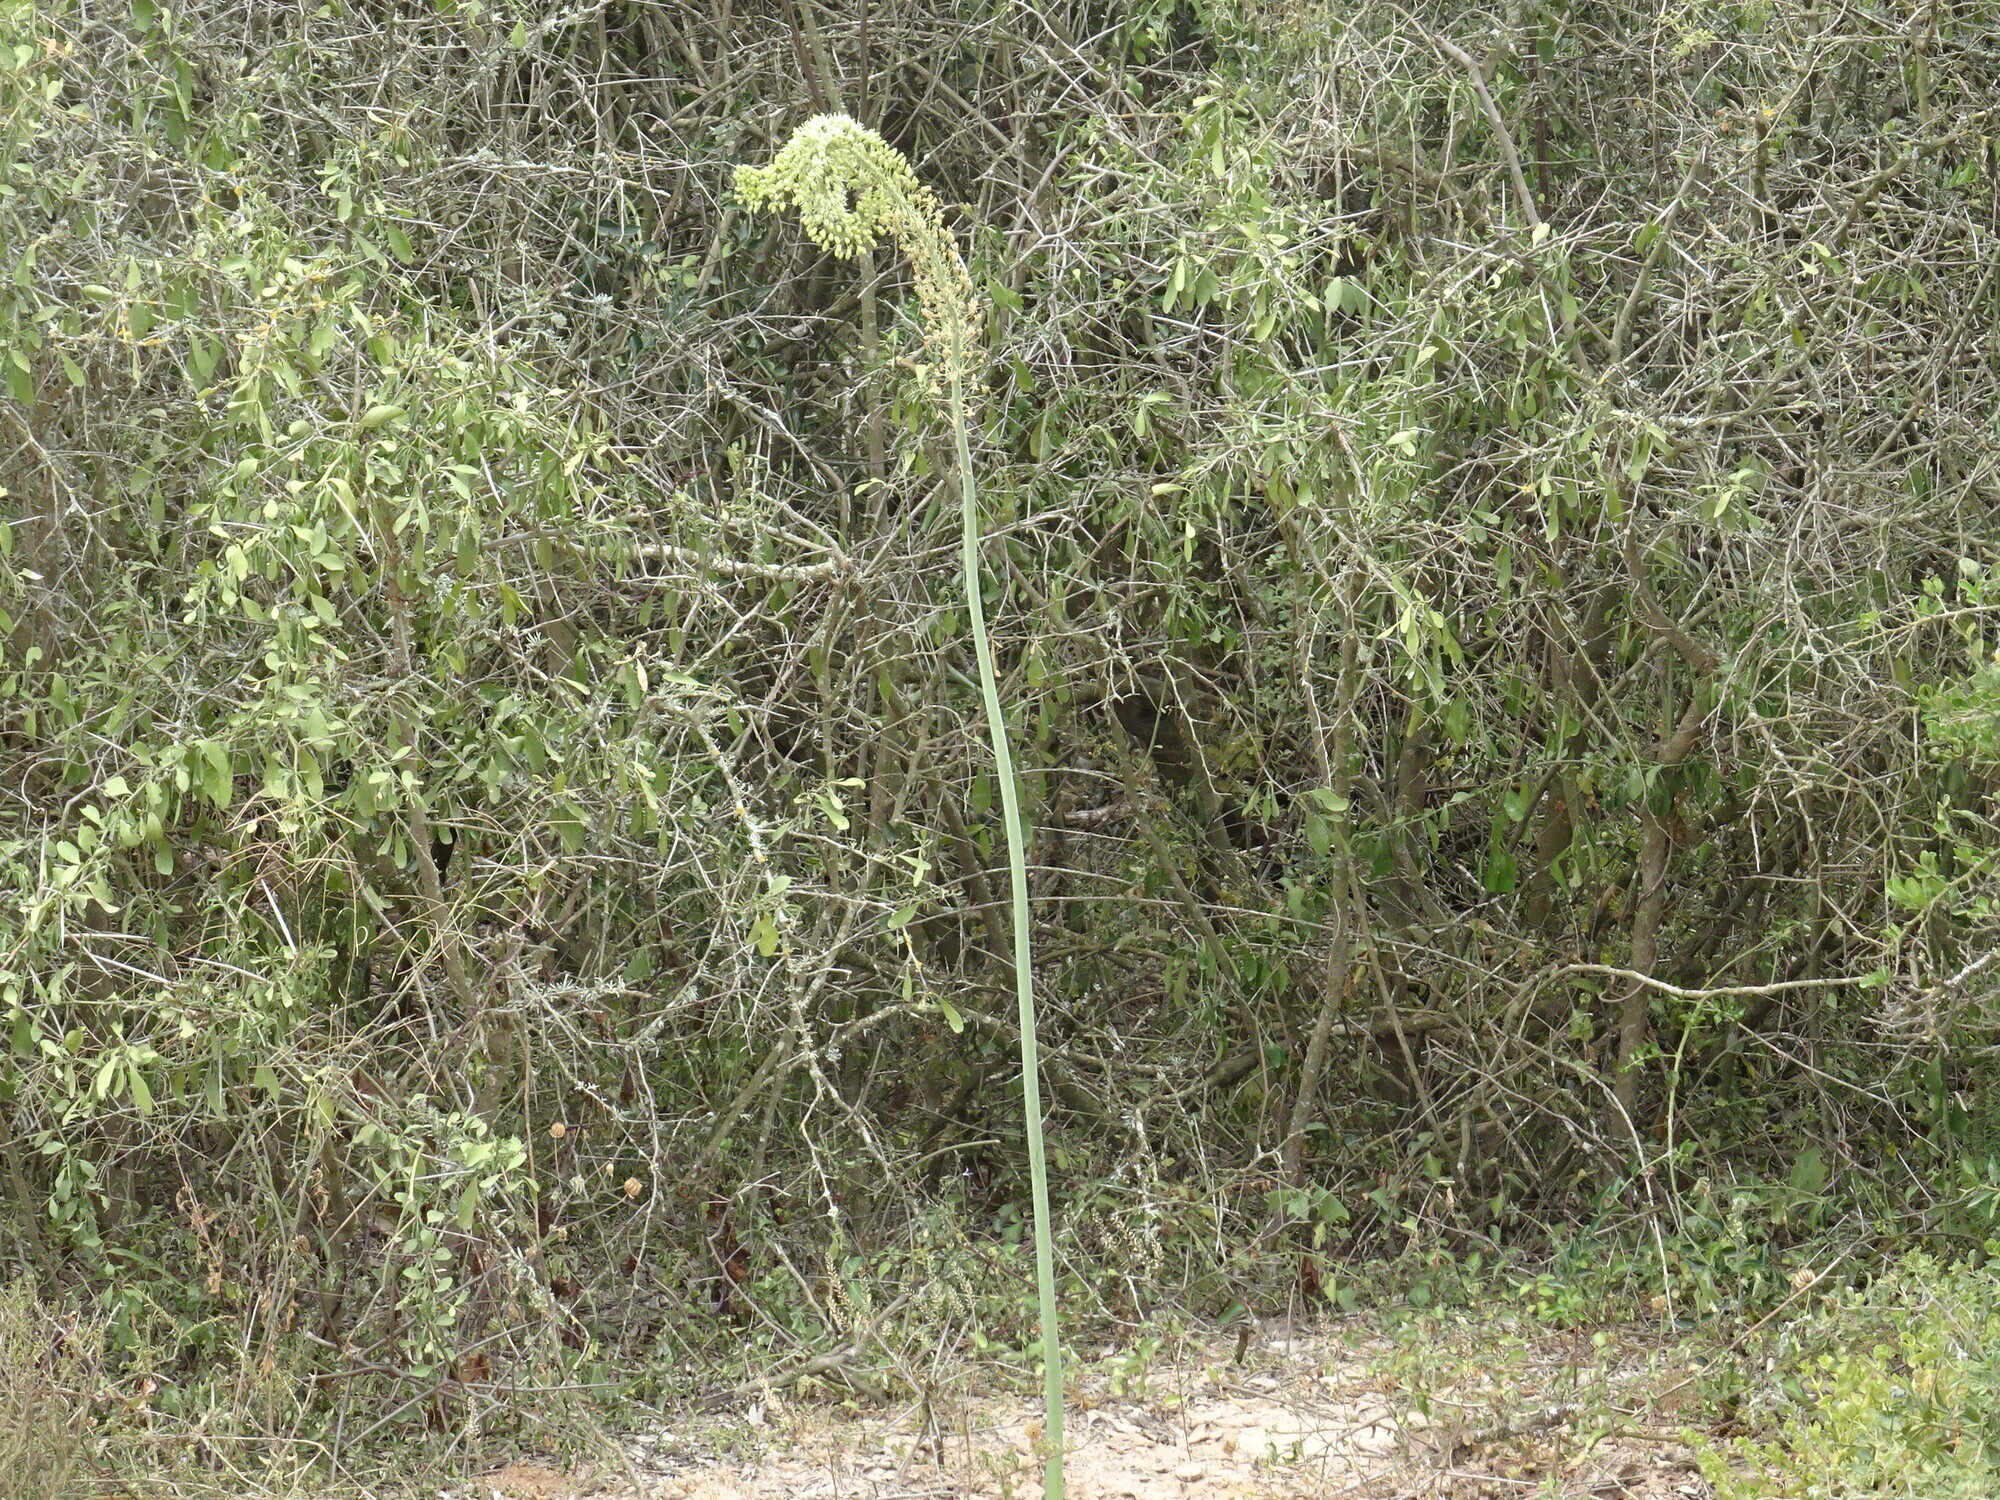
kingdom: Plantae
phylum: Tracheophyta
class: Liliopsida
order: Asparagales
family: Asparagaceae
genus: Drimia
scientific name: Drimia altissima
